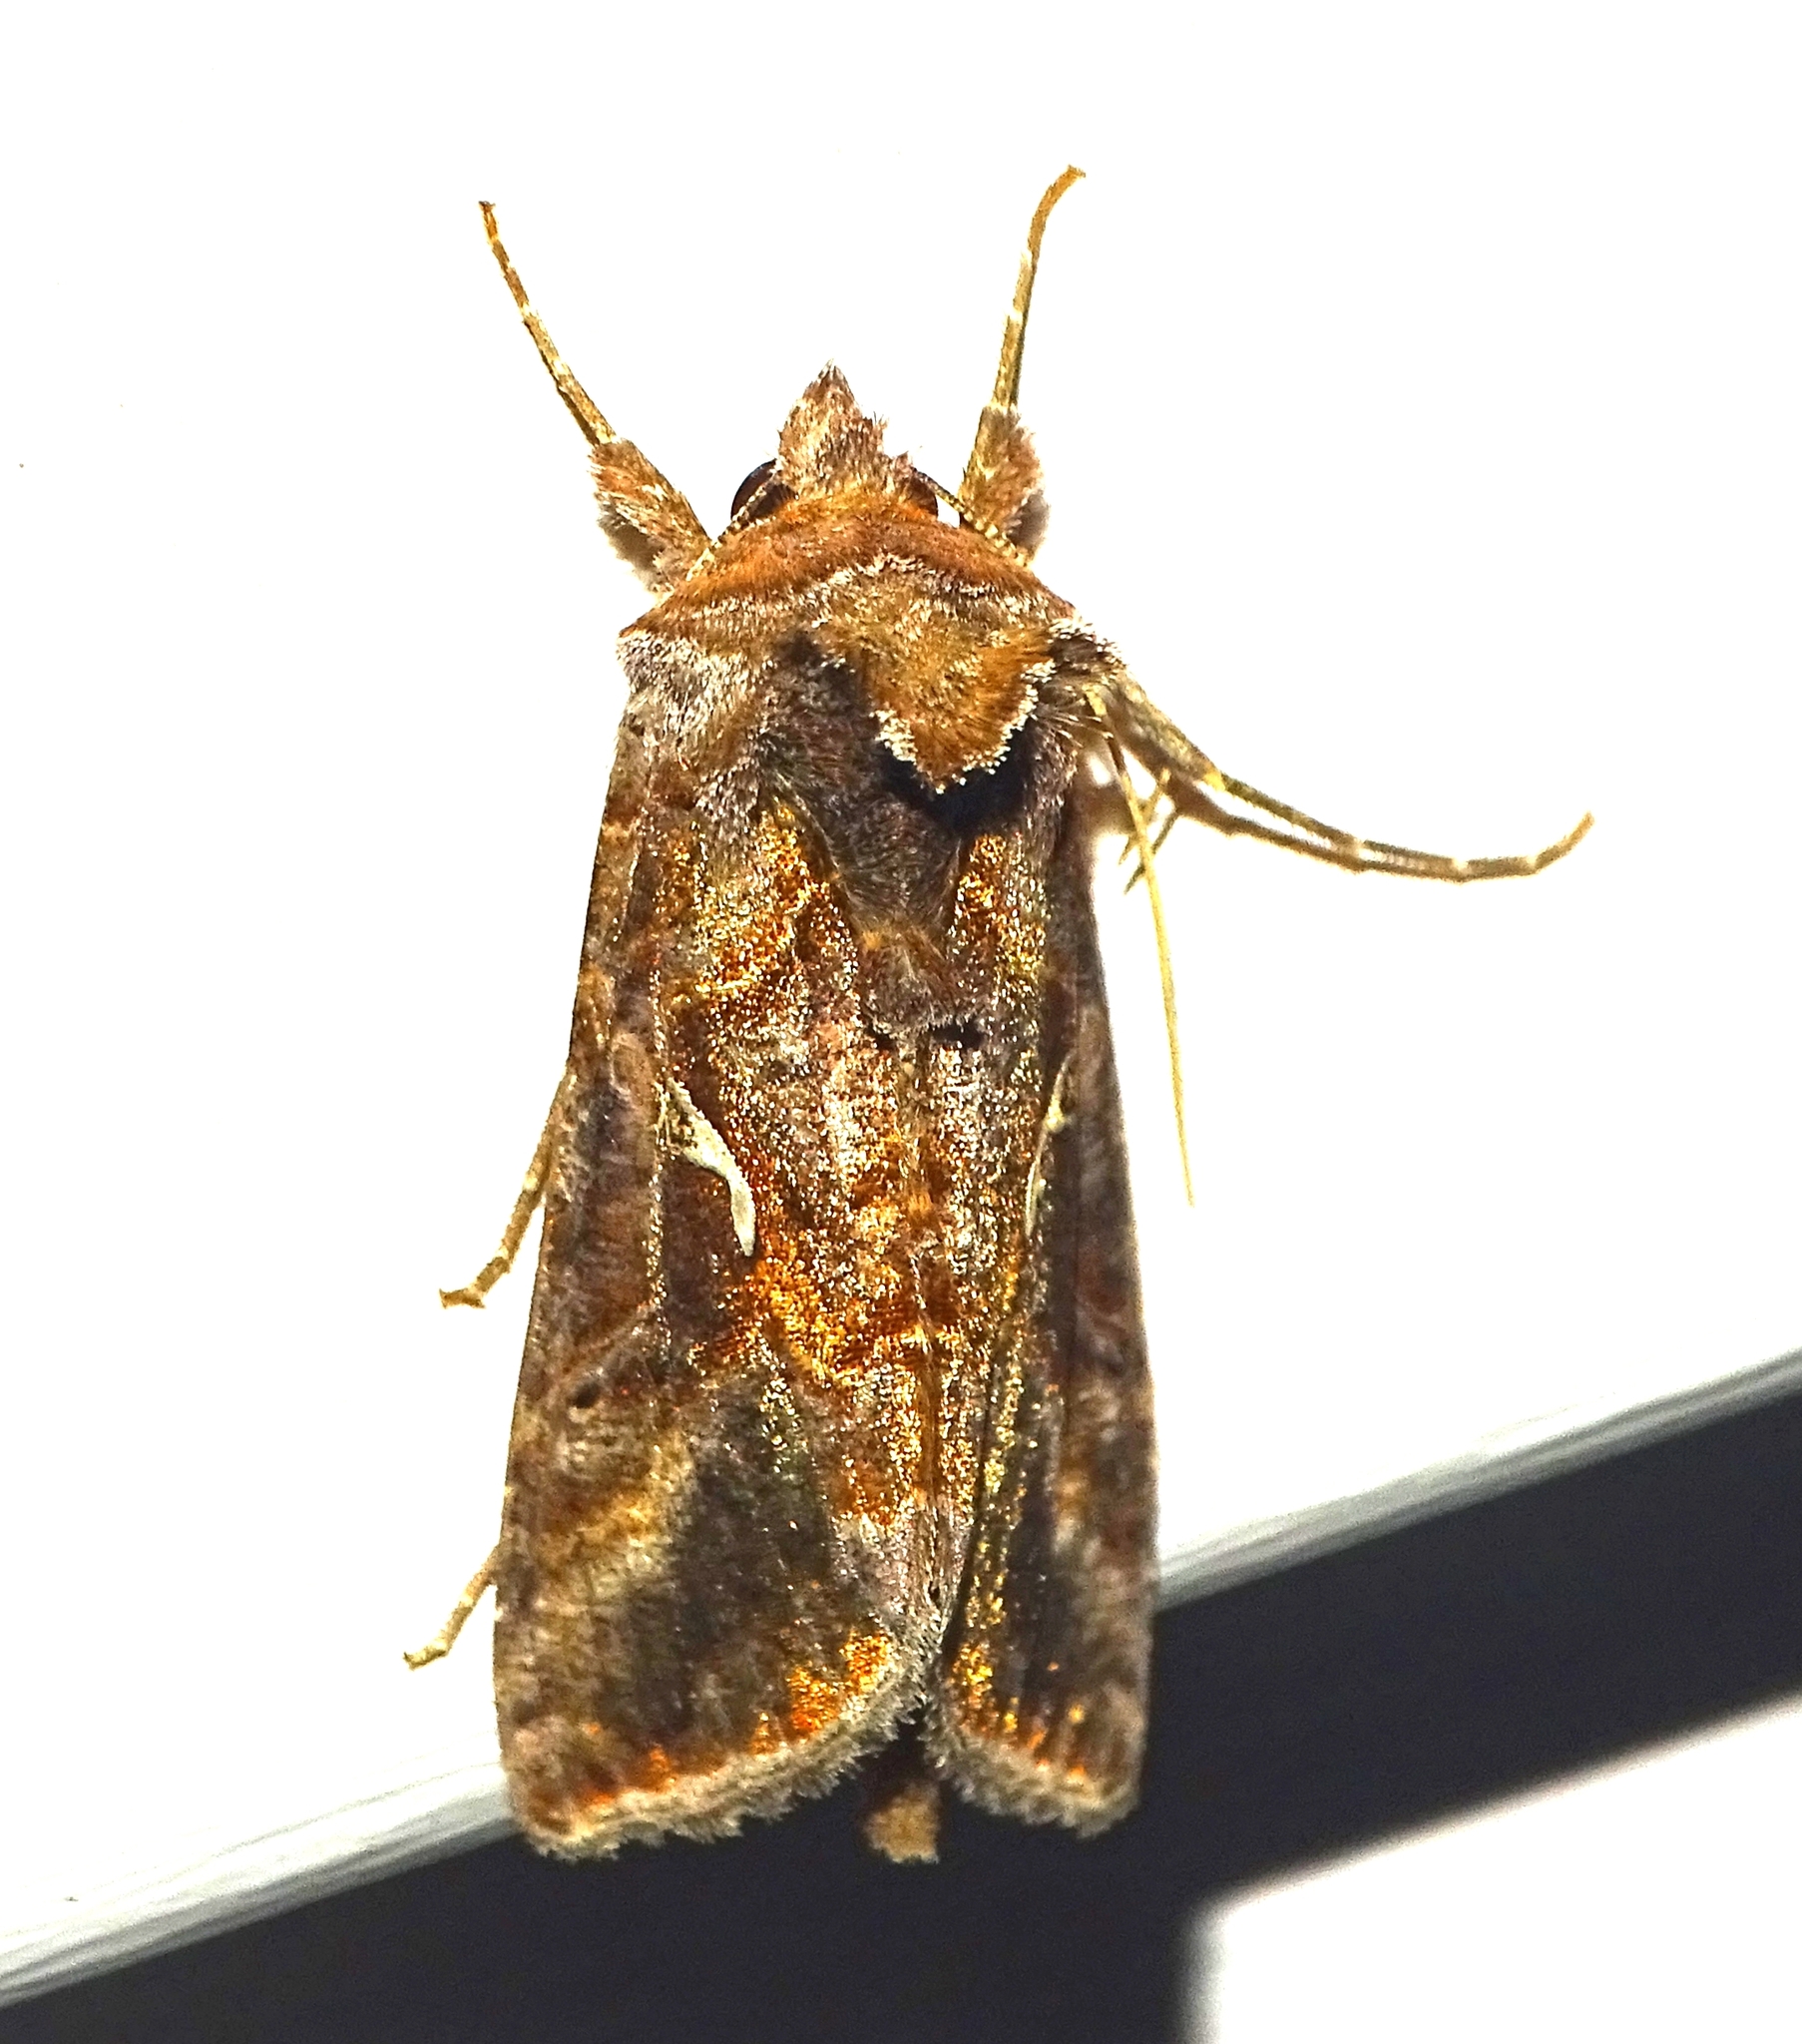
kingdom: Animalia
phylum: Arthropoda
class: Insecta
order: Lepidoptera
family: Noctuidae
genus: Autographa
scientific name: Autographa precationis
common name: Common looper moth
